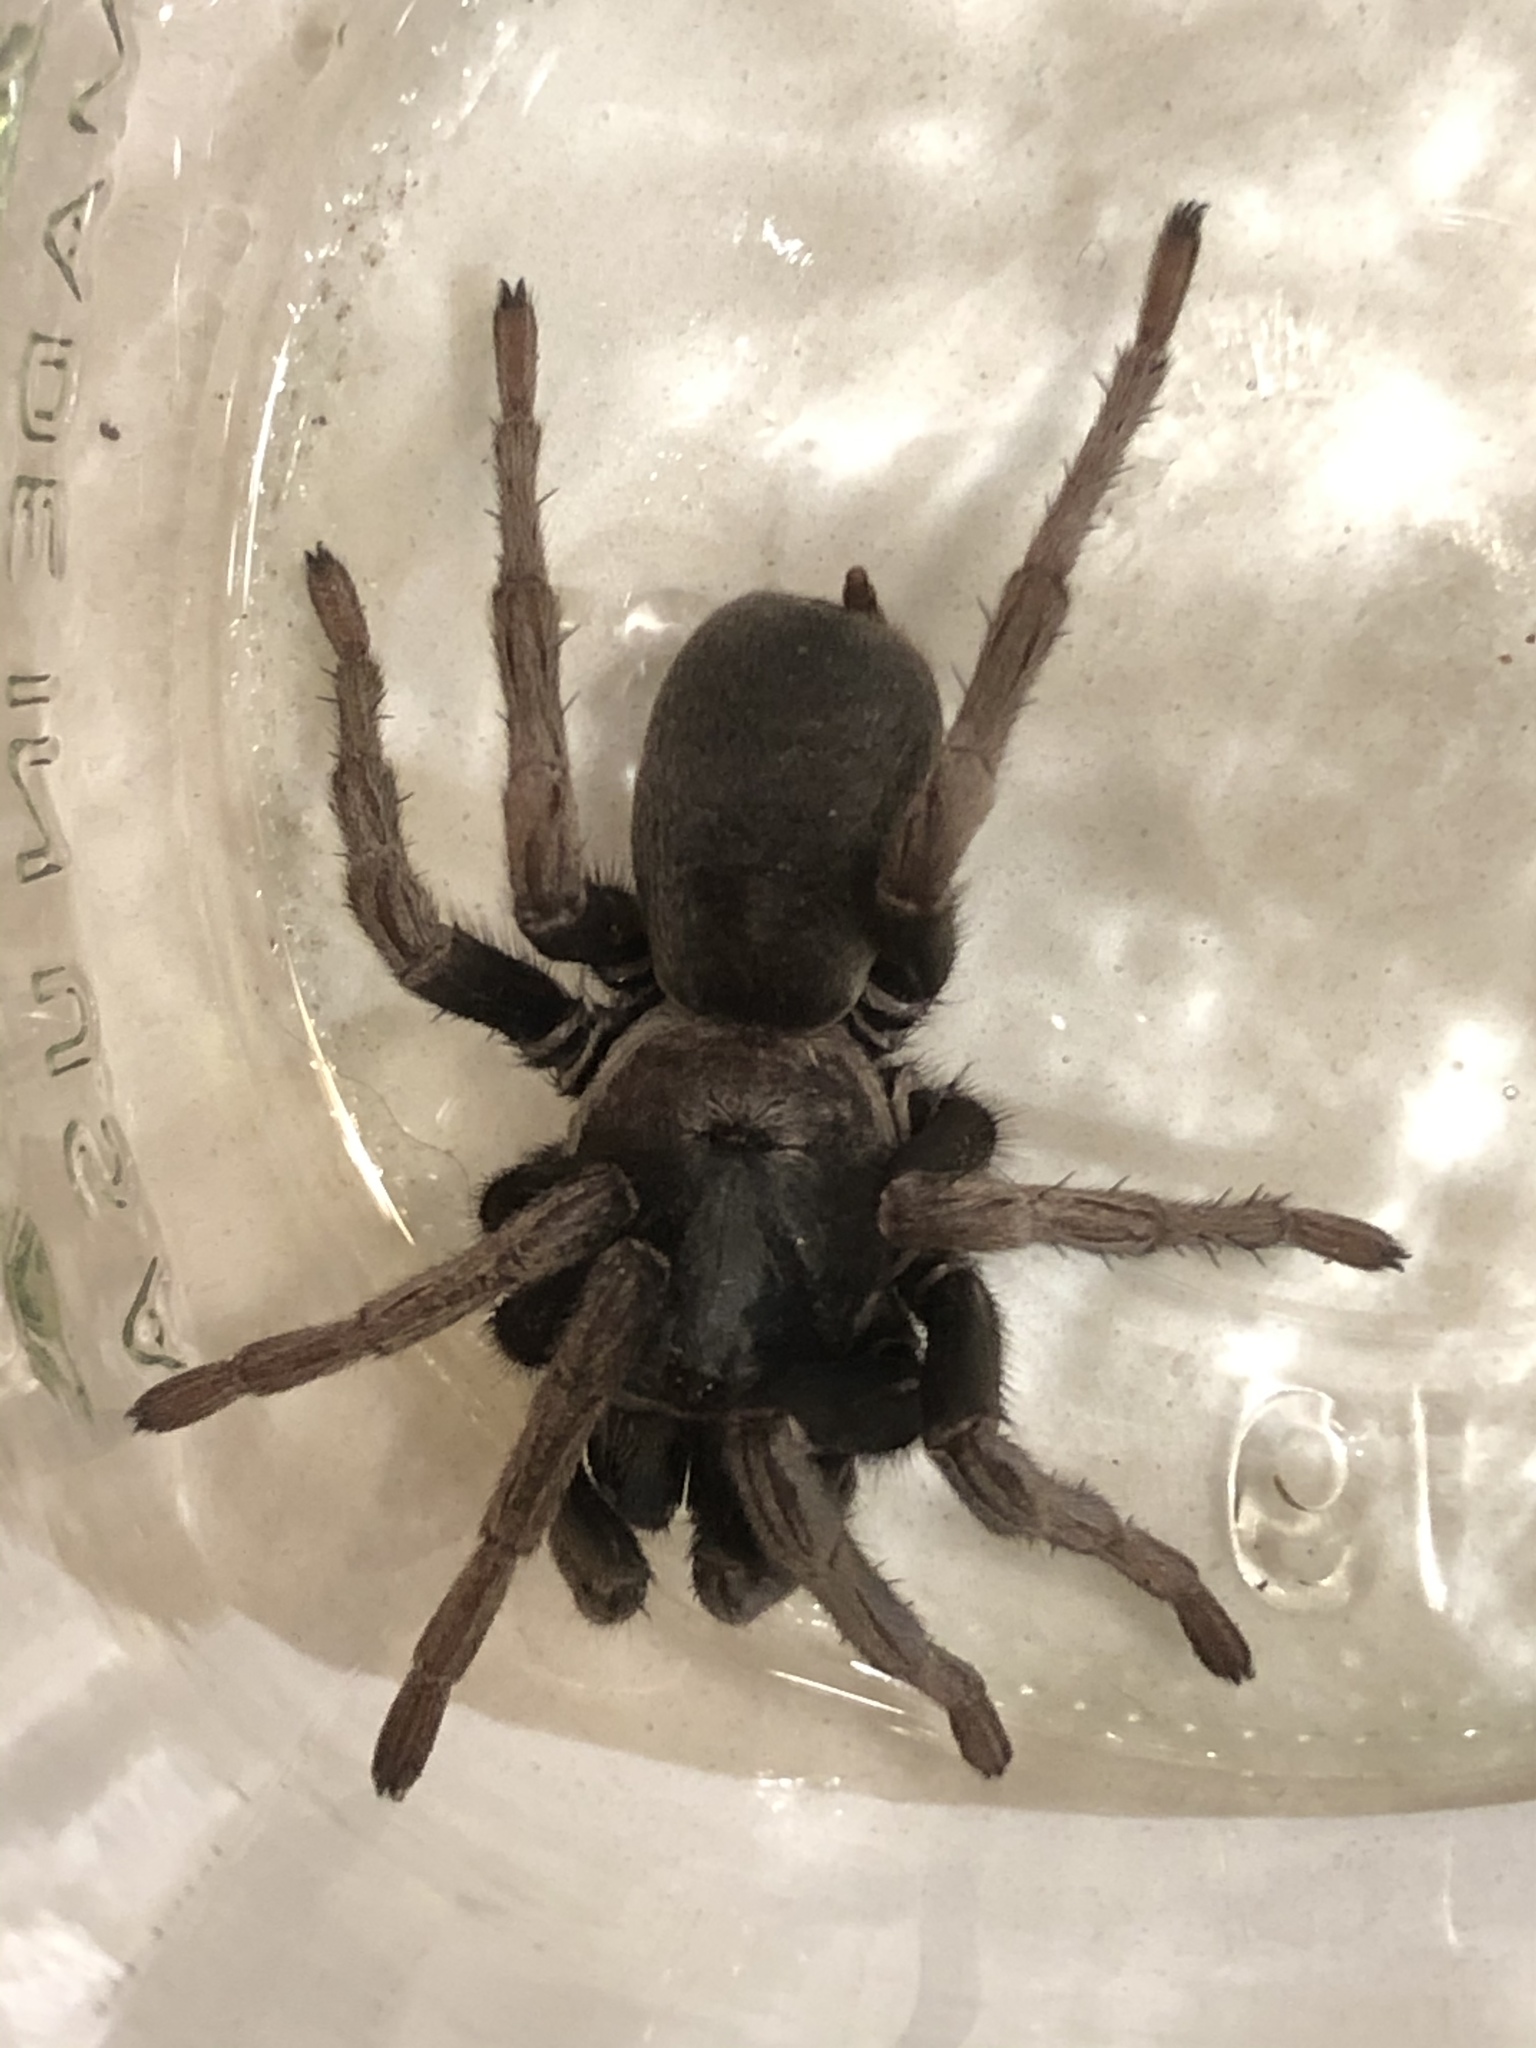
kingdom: Animalia
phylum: Arthropoda
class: Arachnida
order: Araneae
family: Nemesiidae
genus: Calisoga
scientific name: Calisoga longitarsis
